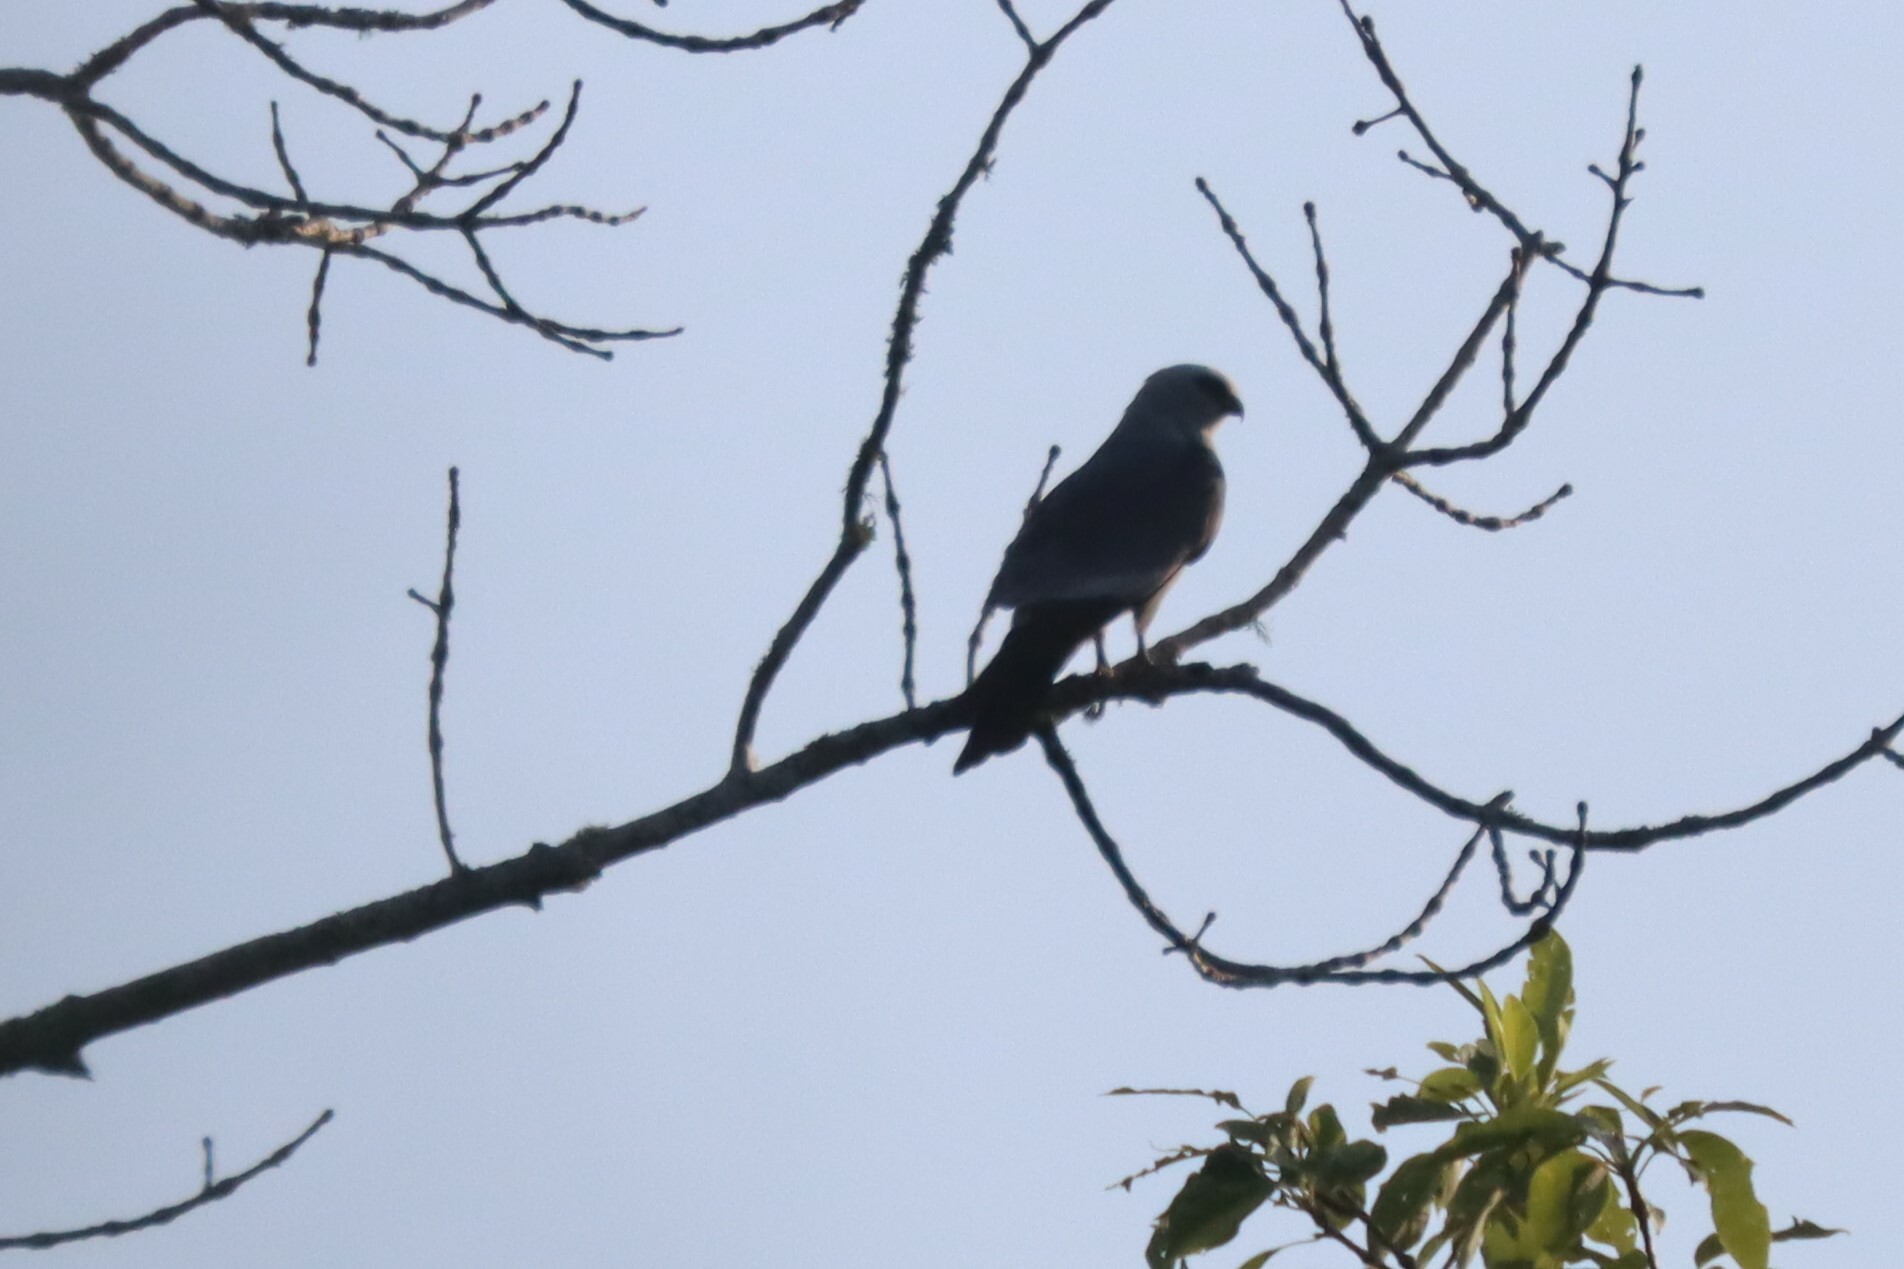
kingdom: Animalia
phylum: Chordata
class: Aves
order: Accipitriformes
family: Accipitridae
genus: Ictinia
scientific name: Ictinia mississippiensis
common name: Mississippi kite
